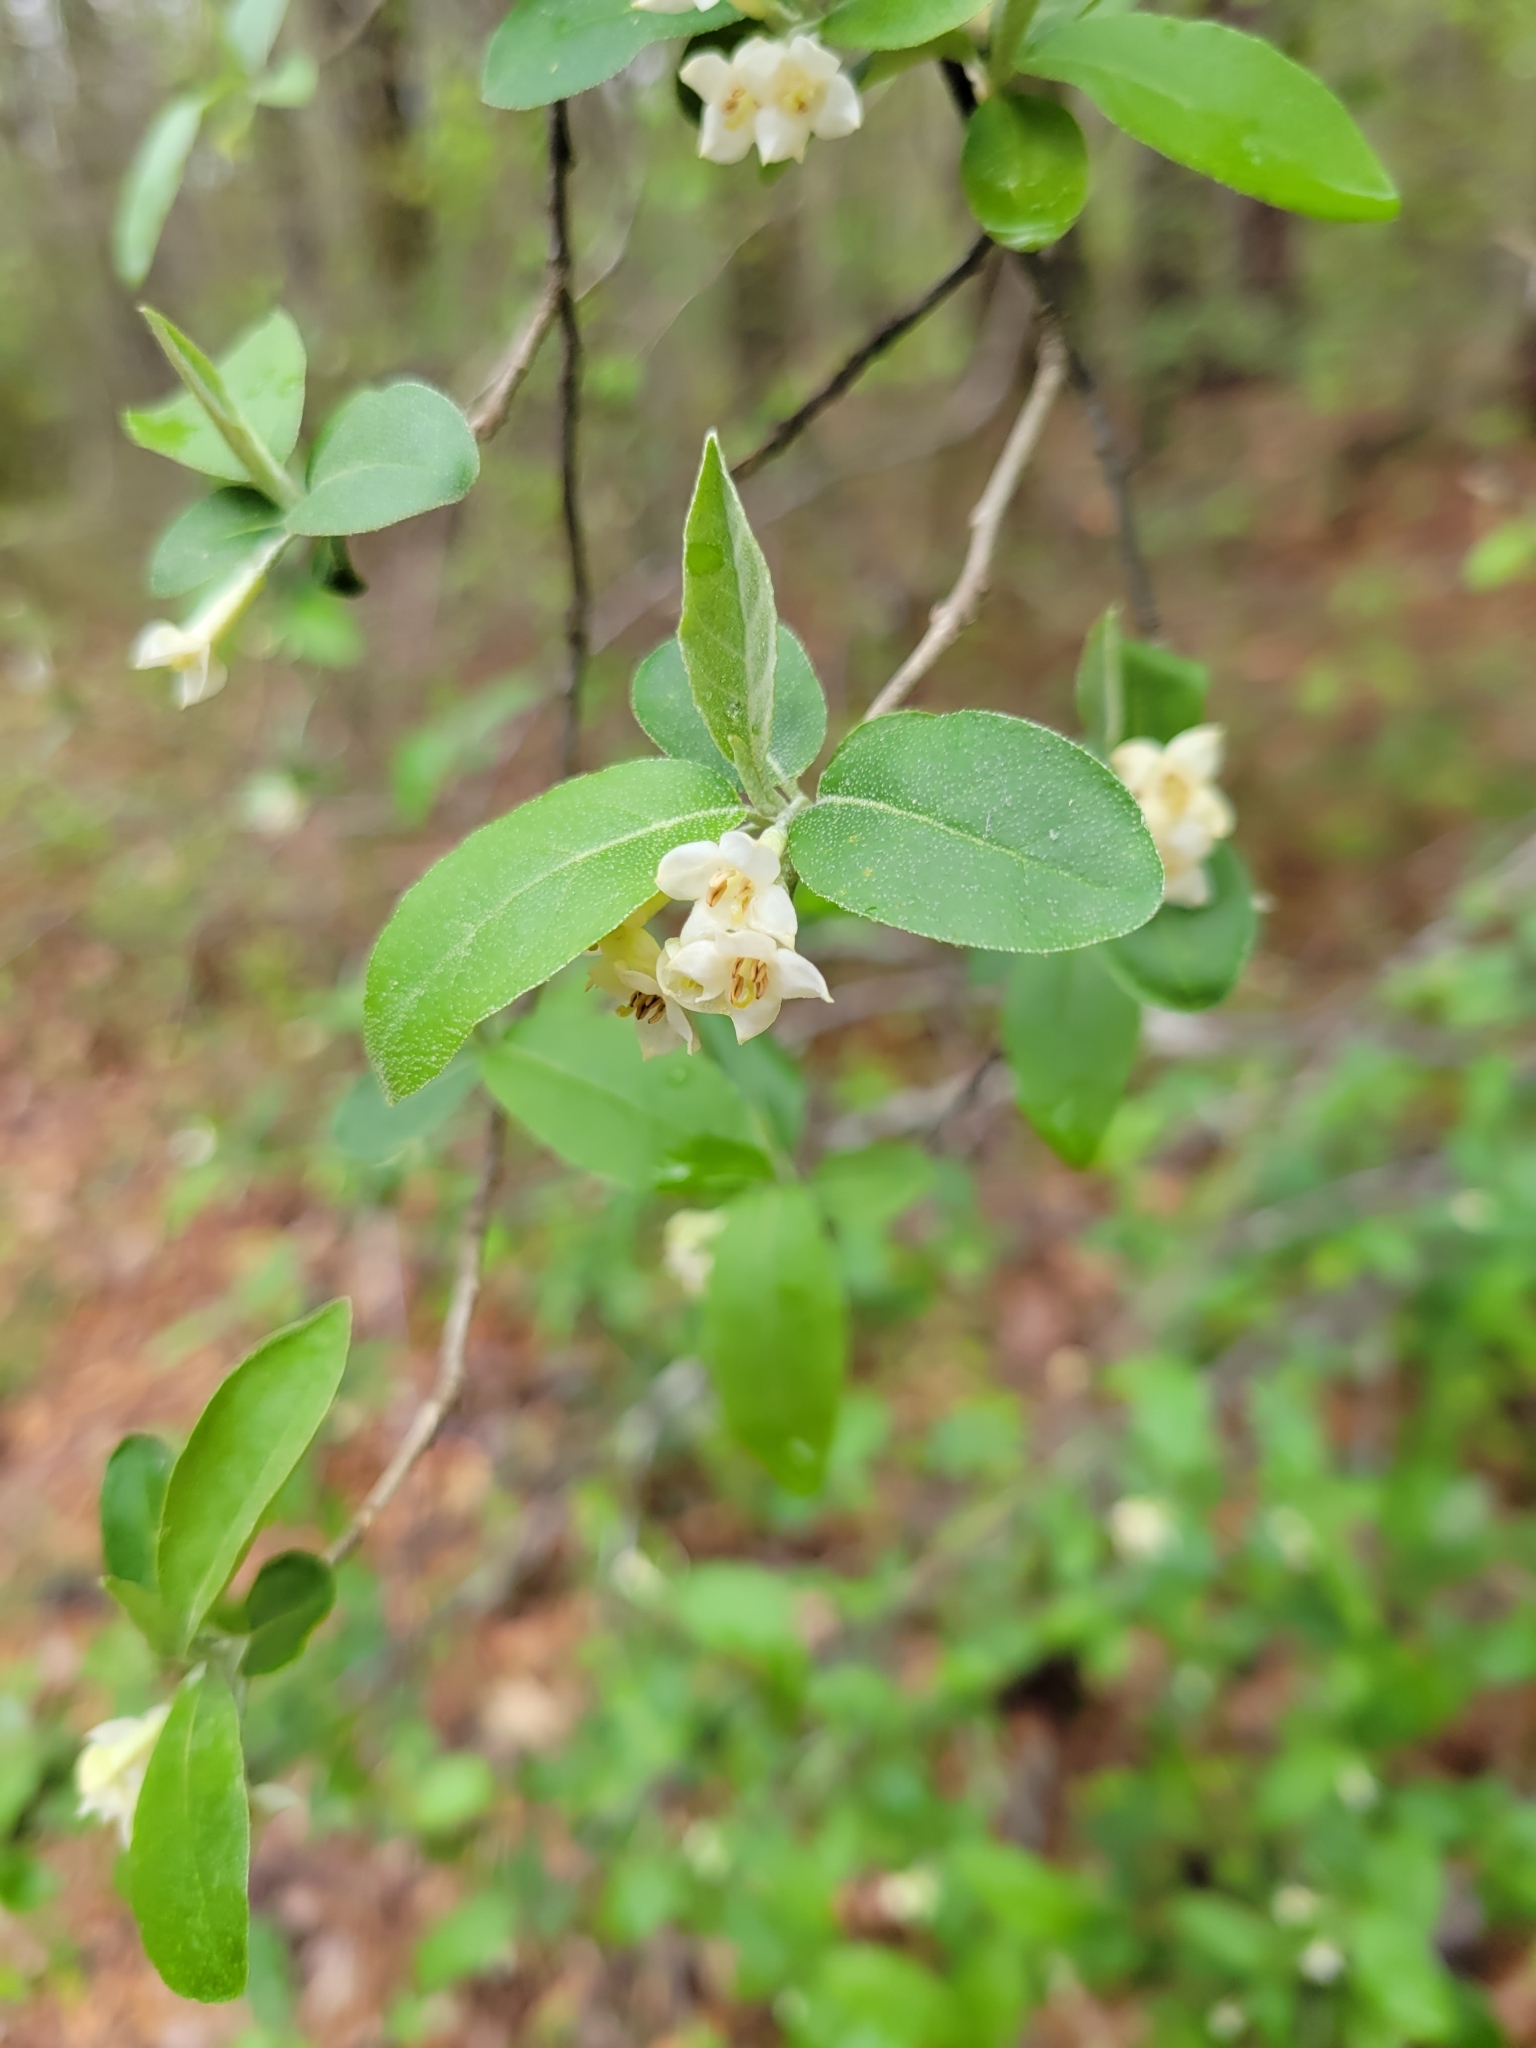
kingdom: Plantae
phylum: Tracheophyta
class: Magnoliopsida
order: Rosales
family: Elaeagnaceae
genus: Elaeagnus
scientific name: Elaeagnus umbellata
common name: Autumn olive
